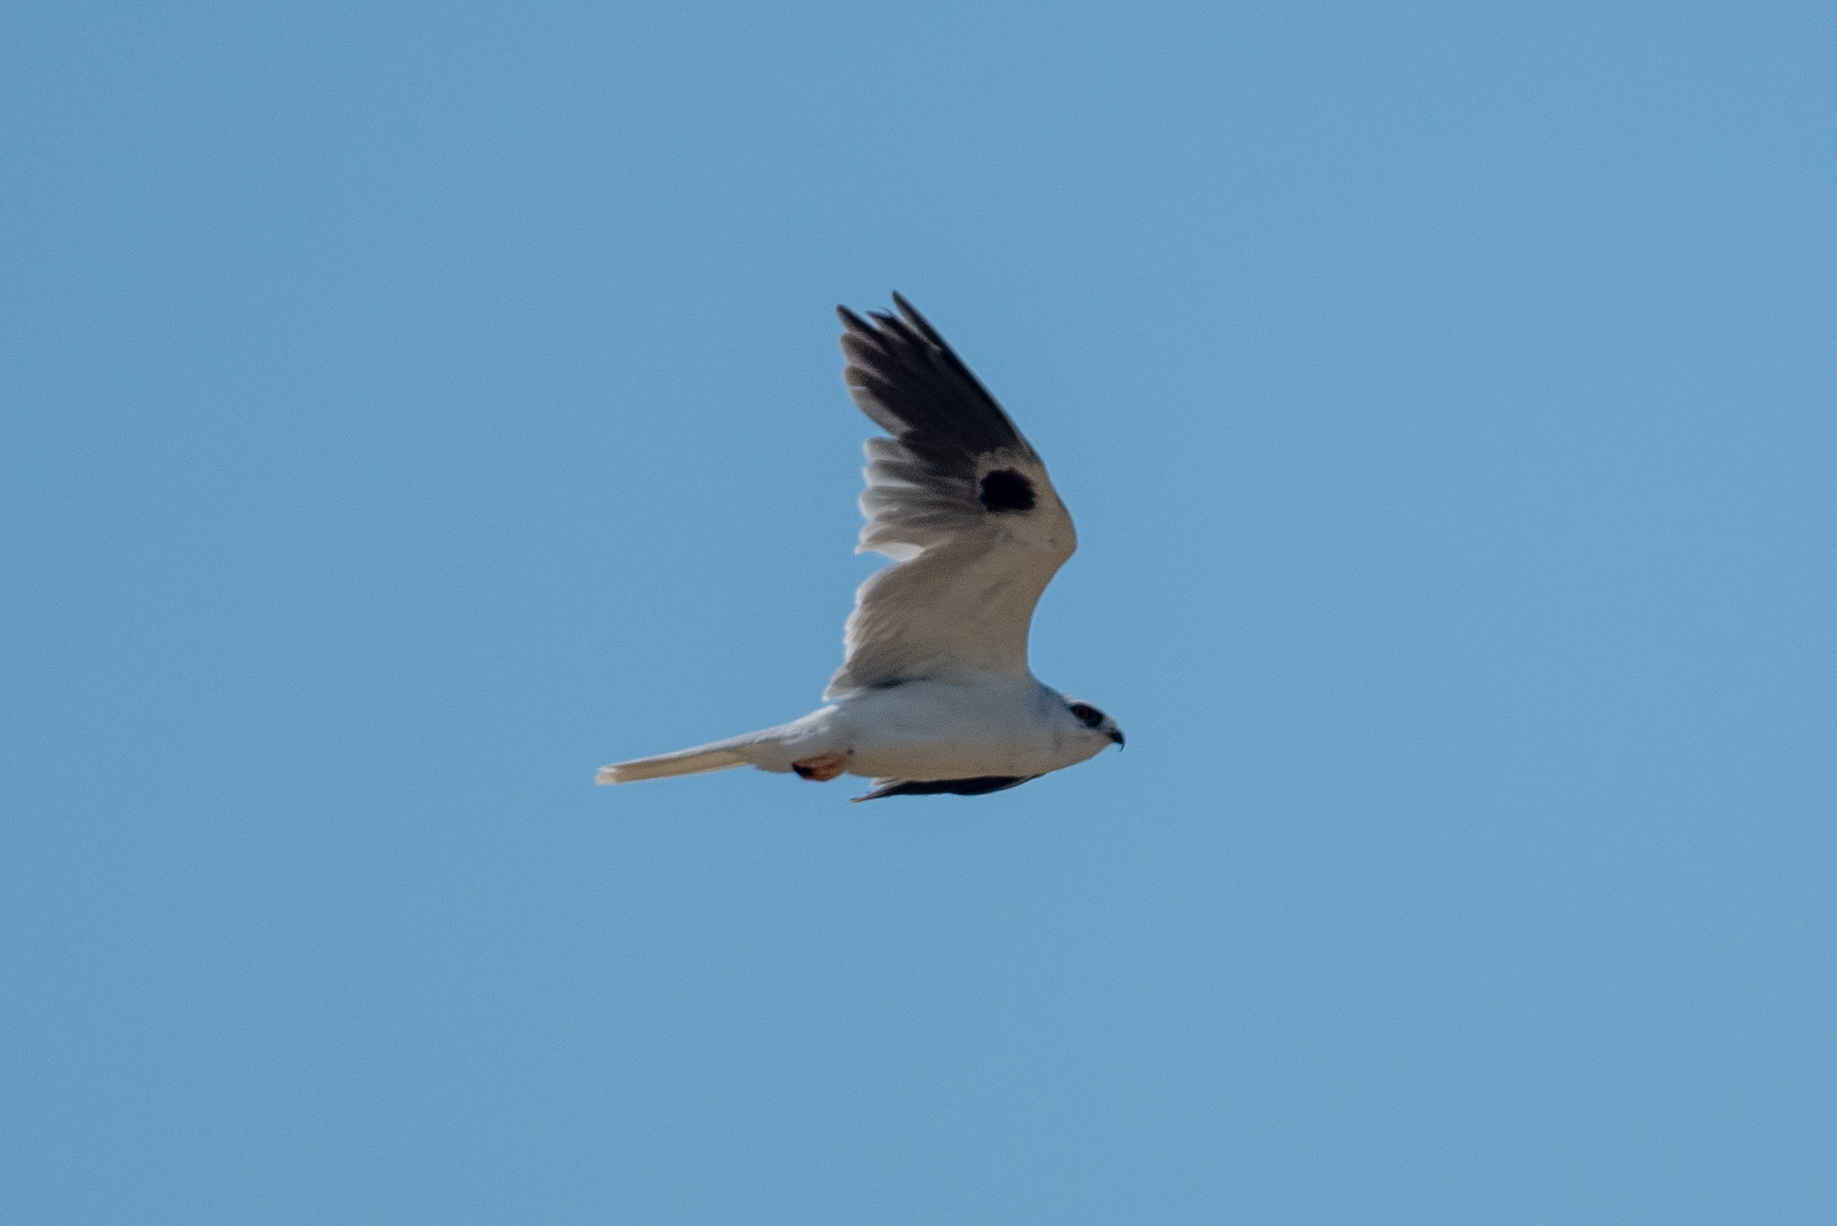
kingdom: Animalia
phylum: Chordata
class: Aves
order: Accipitriformes
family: Accipitridae
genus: Elanus
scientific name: Elanus leucurus
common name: White-tailed kite
